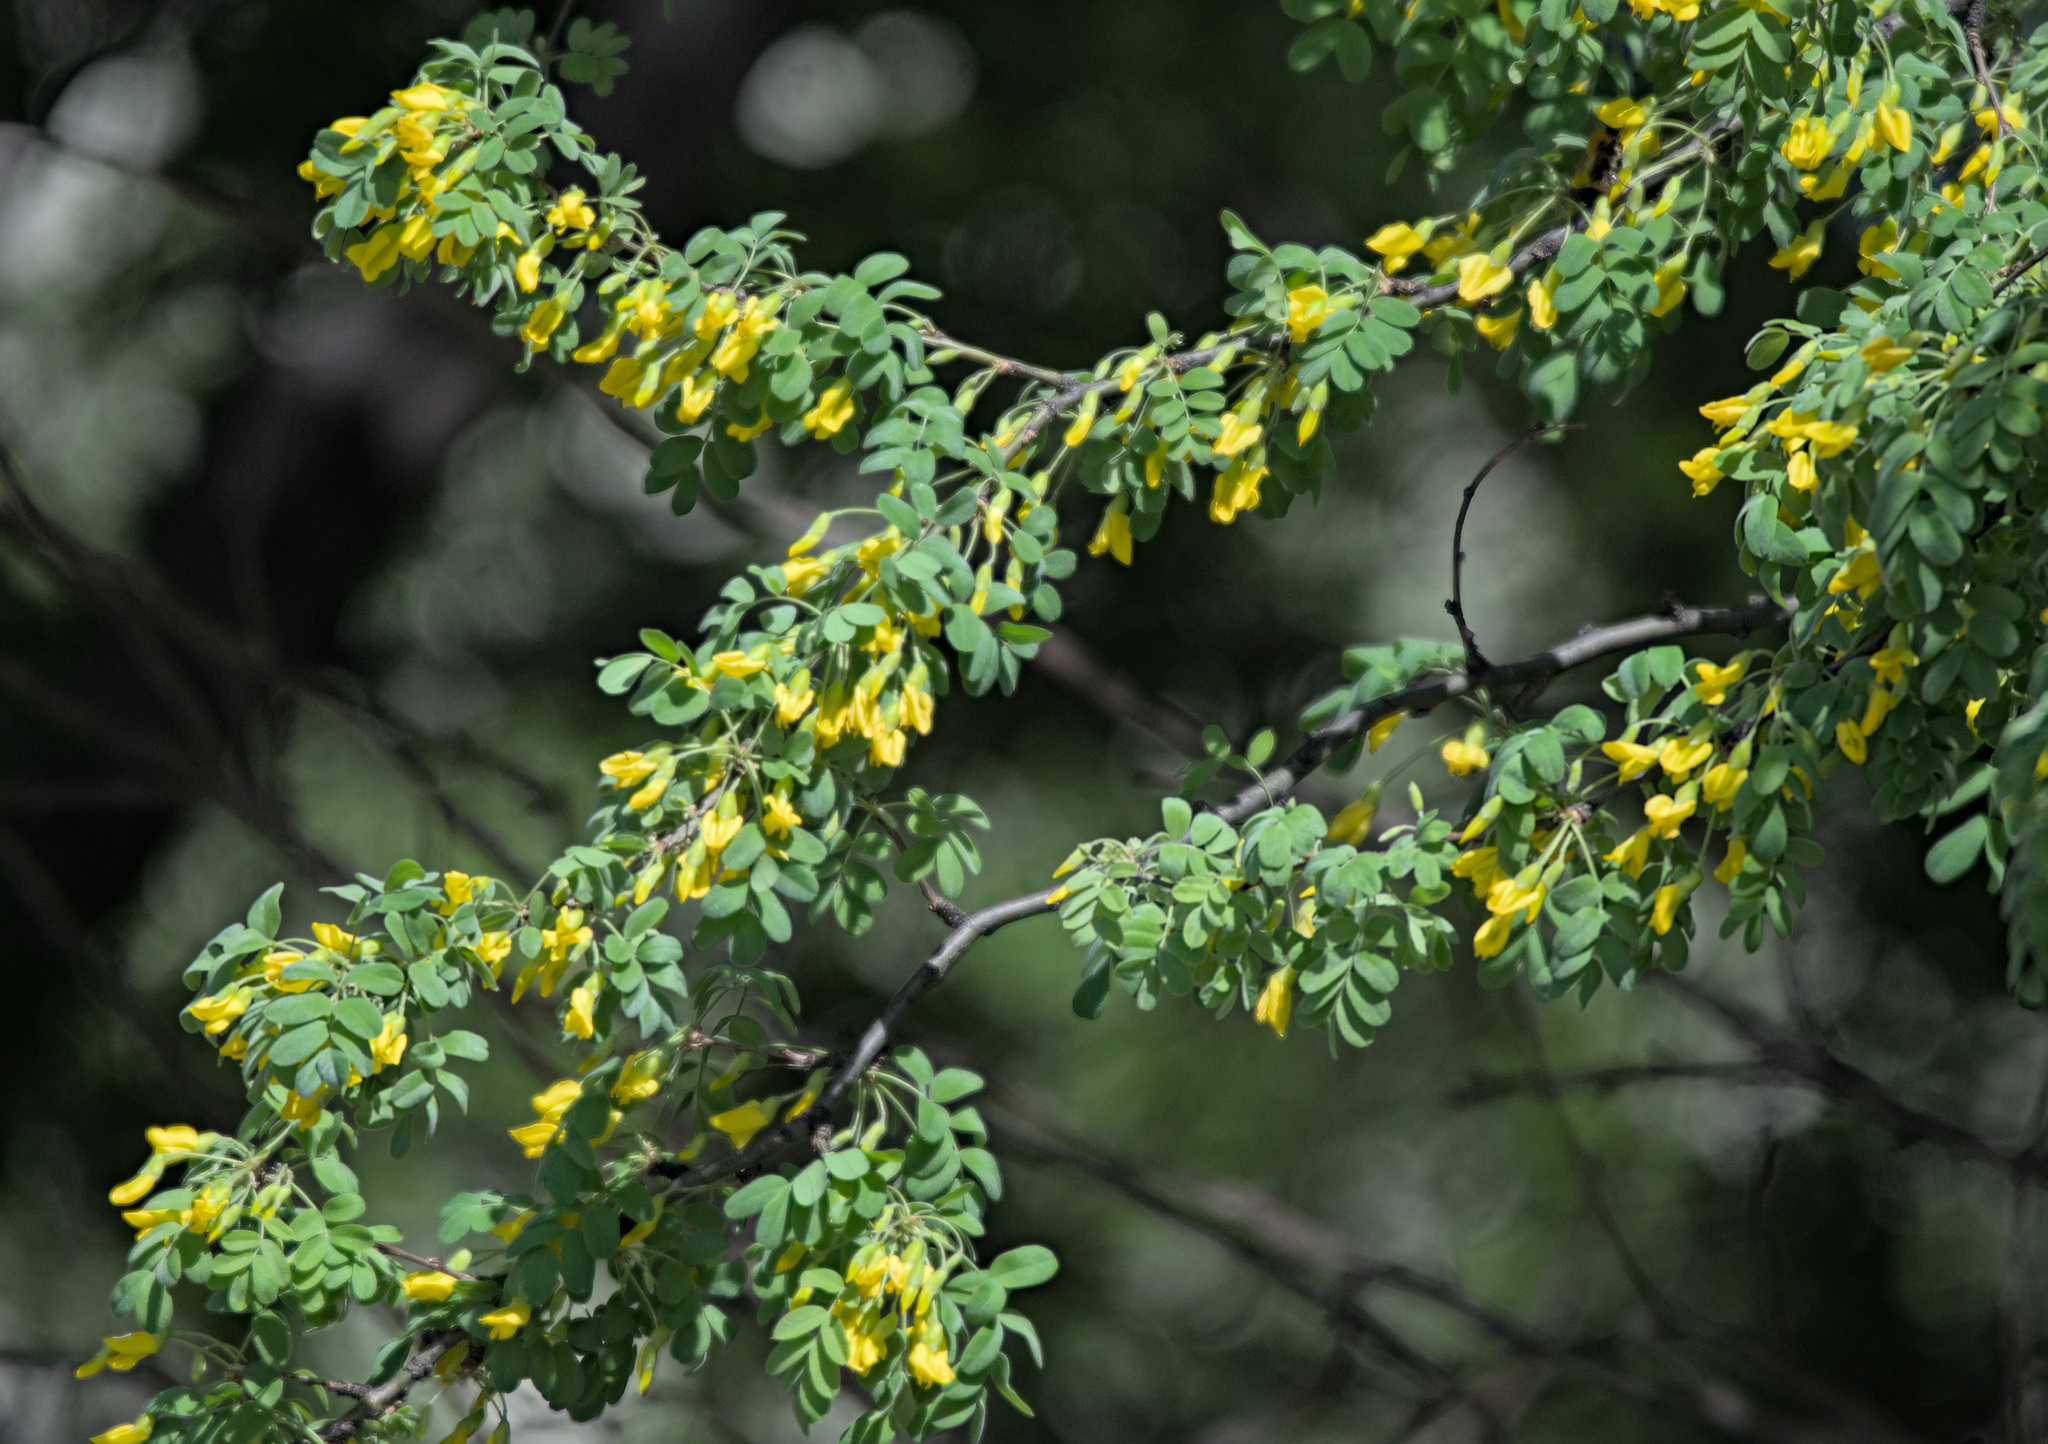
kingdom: Plantae
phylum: Tracheophyta
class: Magnoliopsida
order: Fabales
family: Fabaceae
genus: Caragana
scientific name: Caragana arborescens
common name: Siberian peashrub
